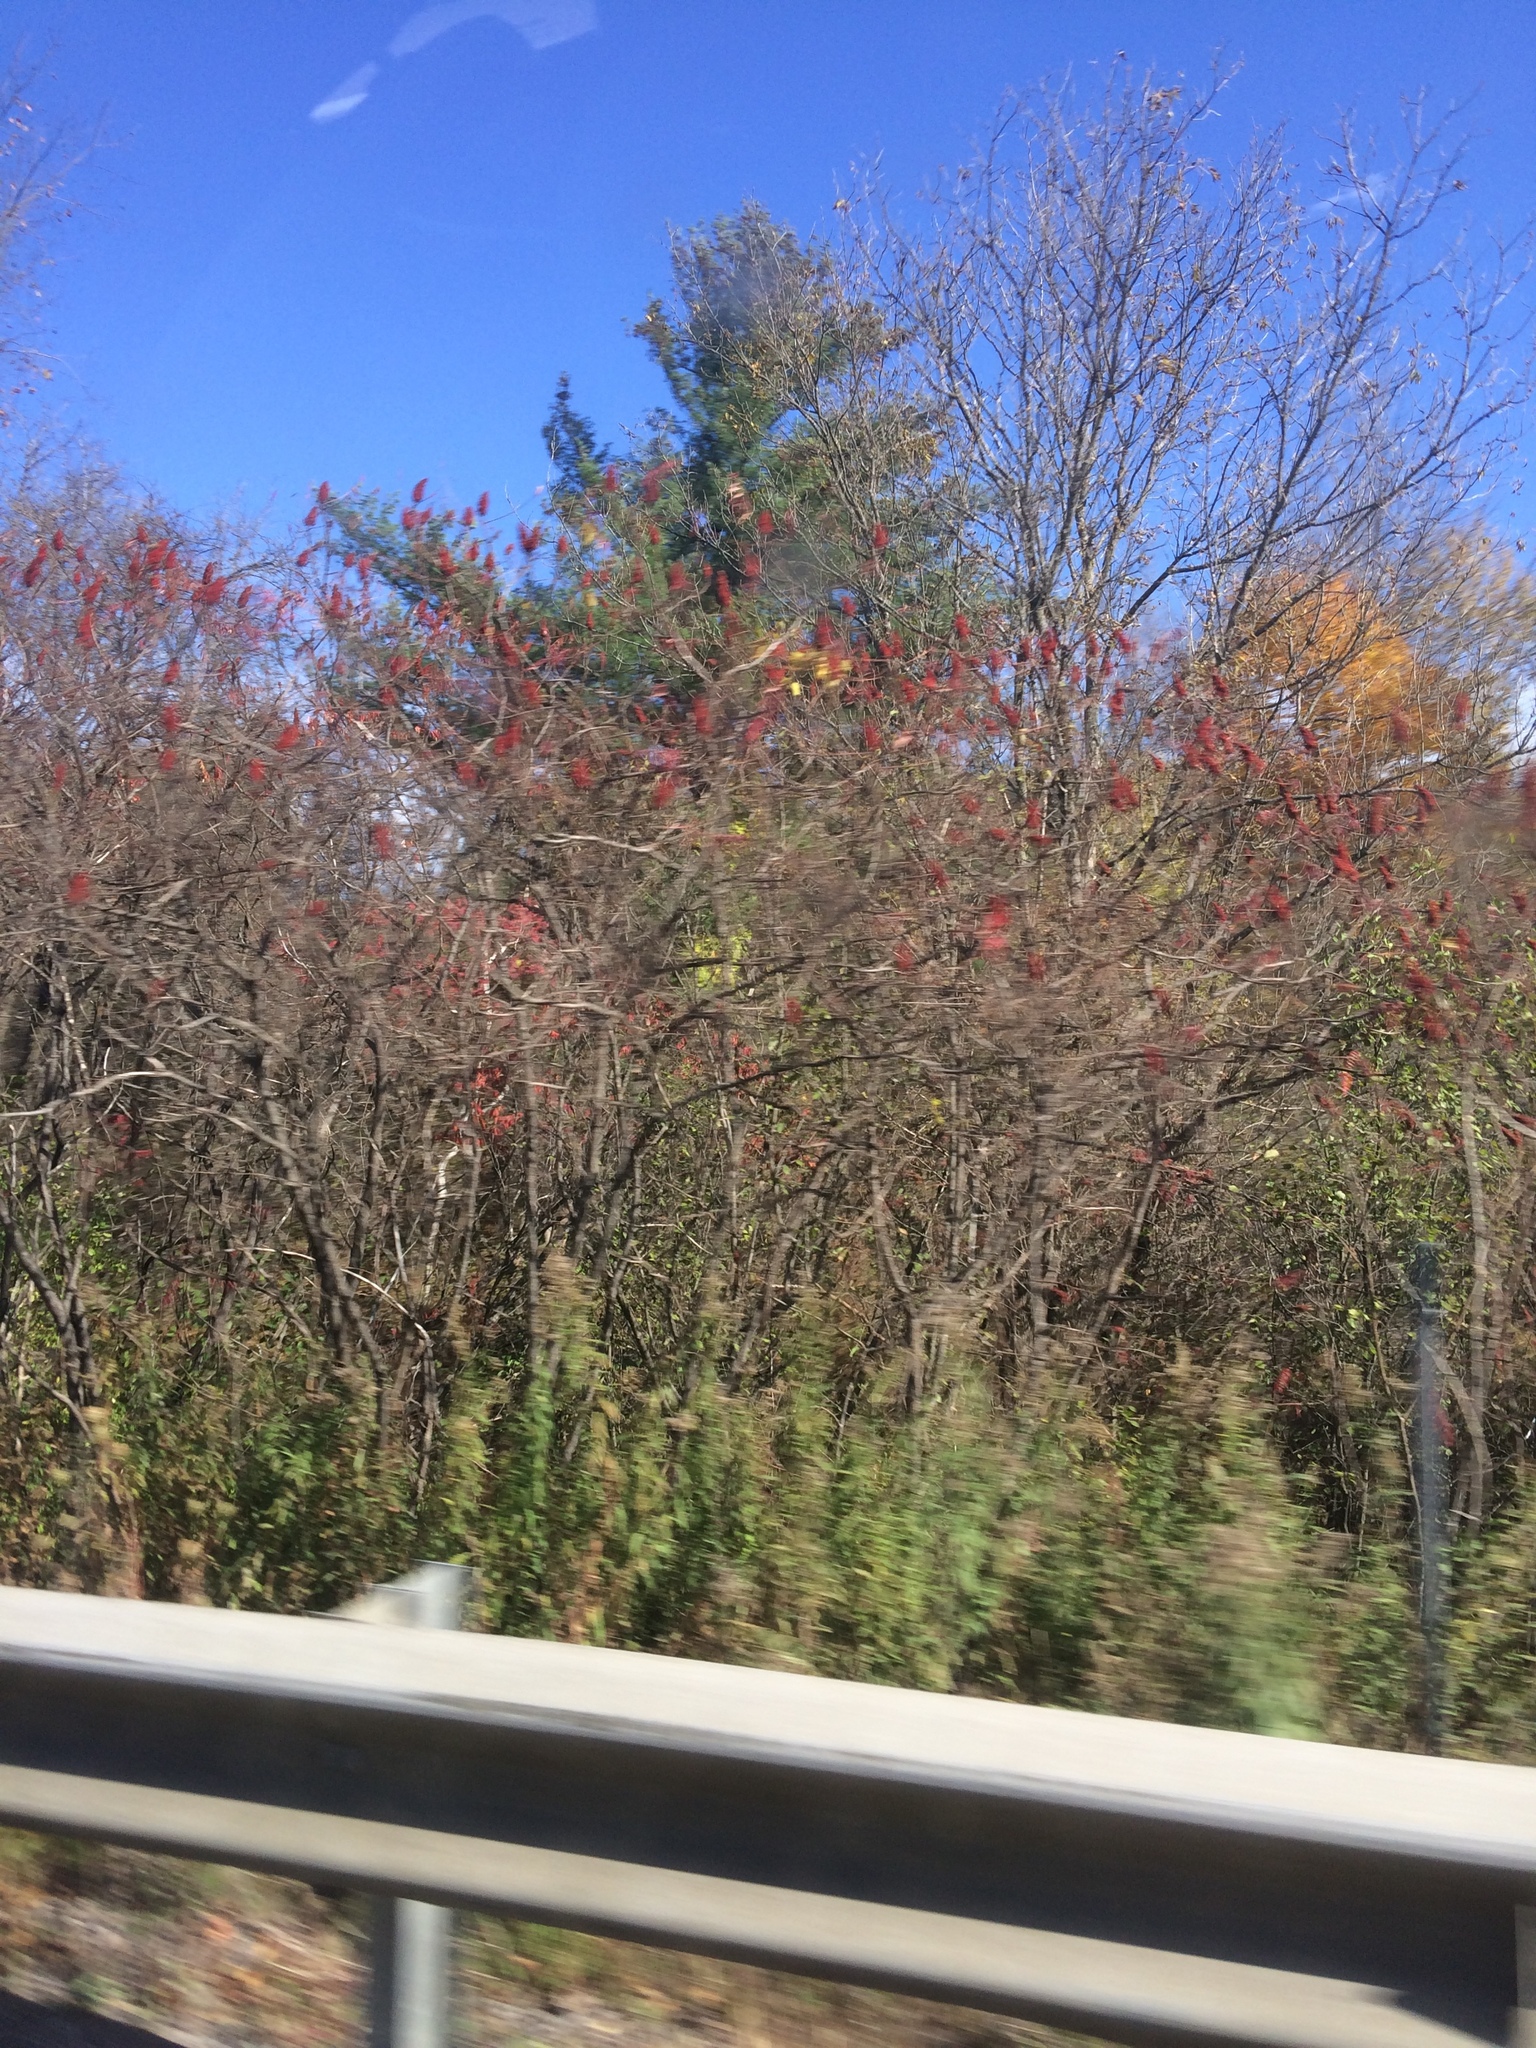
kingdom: Plantae
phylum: Tracheophyta
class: Magnoliopsida
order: Sapindales
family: Anacardiaceae
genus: Rhus
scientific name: Rhus typhina
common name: Staghorn sumac
